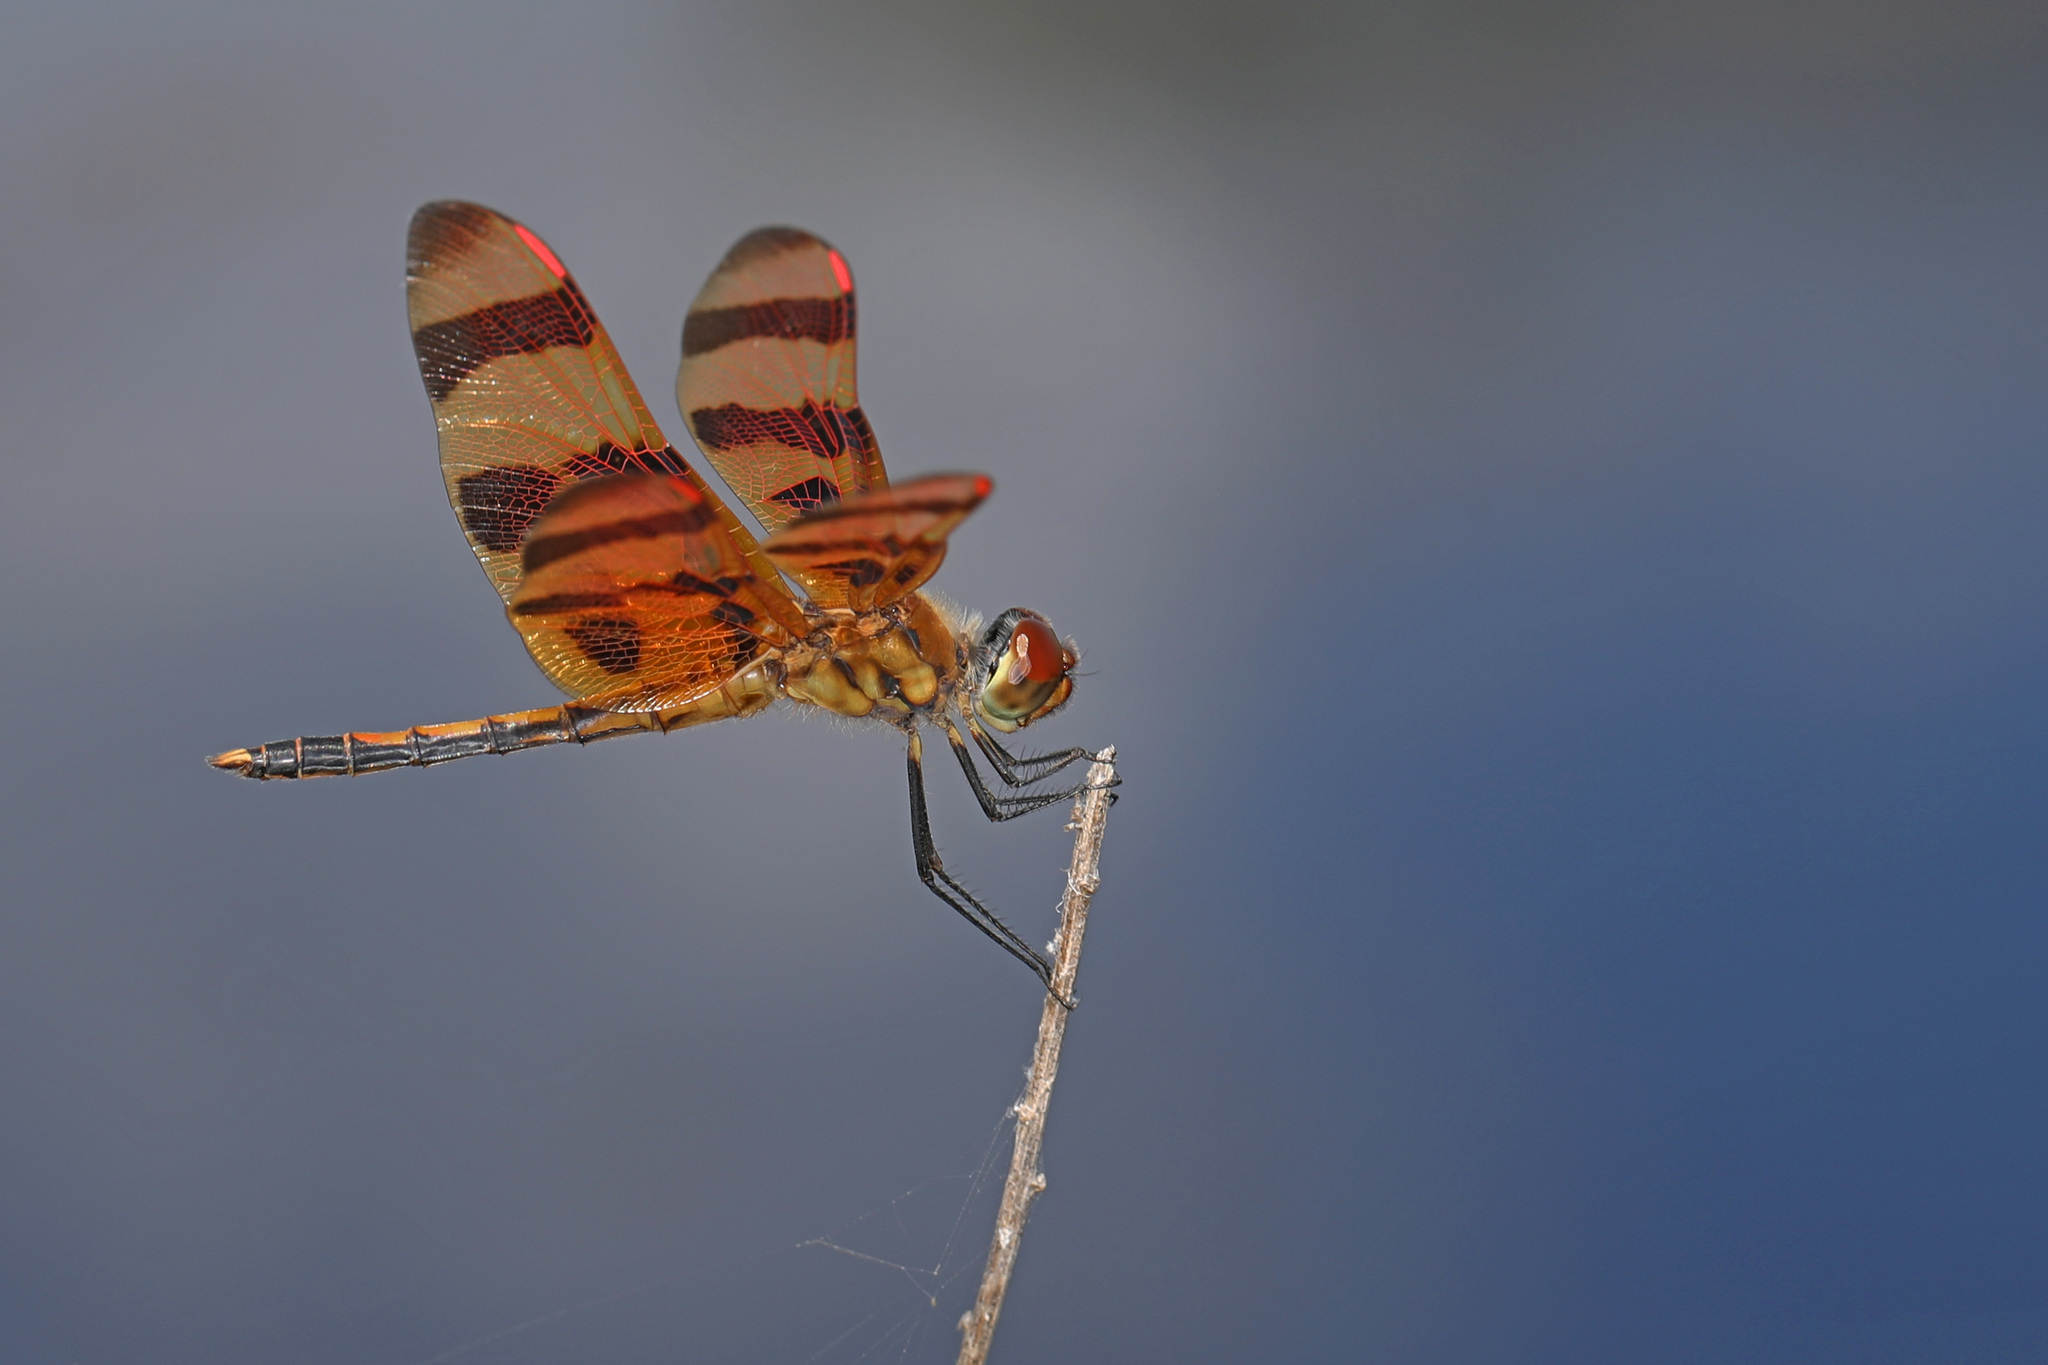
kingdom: Animalia
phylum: Arthropoda
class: Insecta
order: Odonata
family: Libellulidae
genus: Celithemis
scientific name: Celithemis eponina
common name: Halloween pennant
